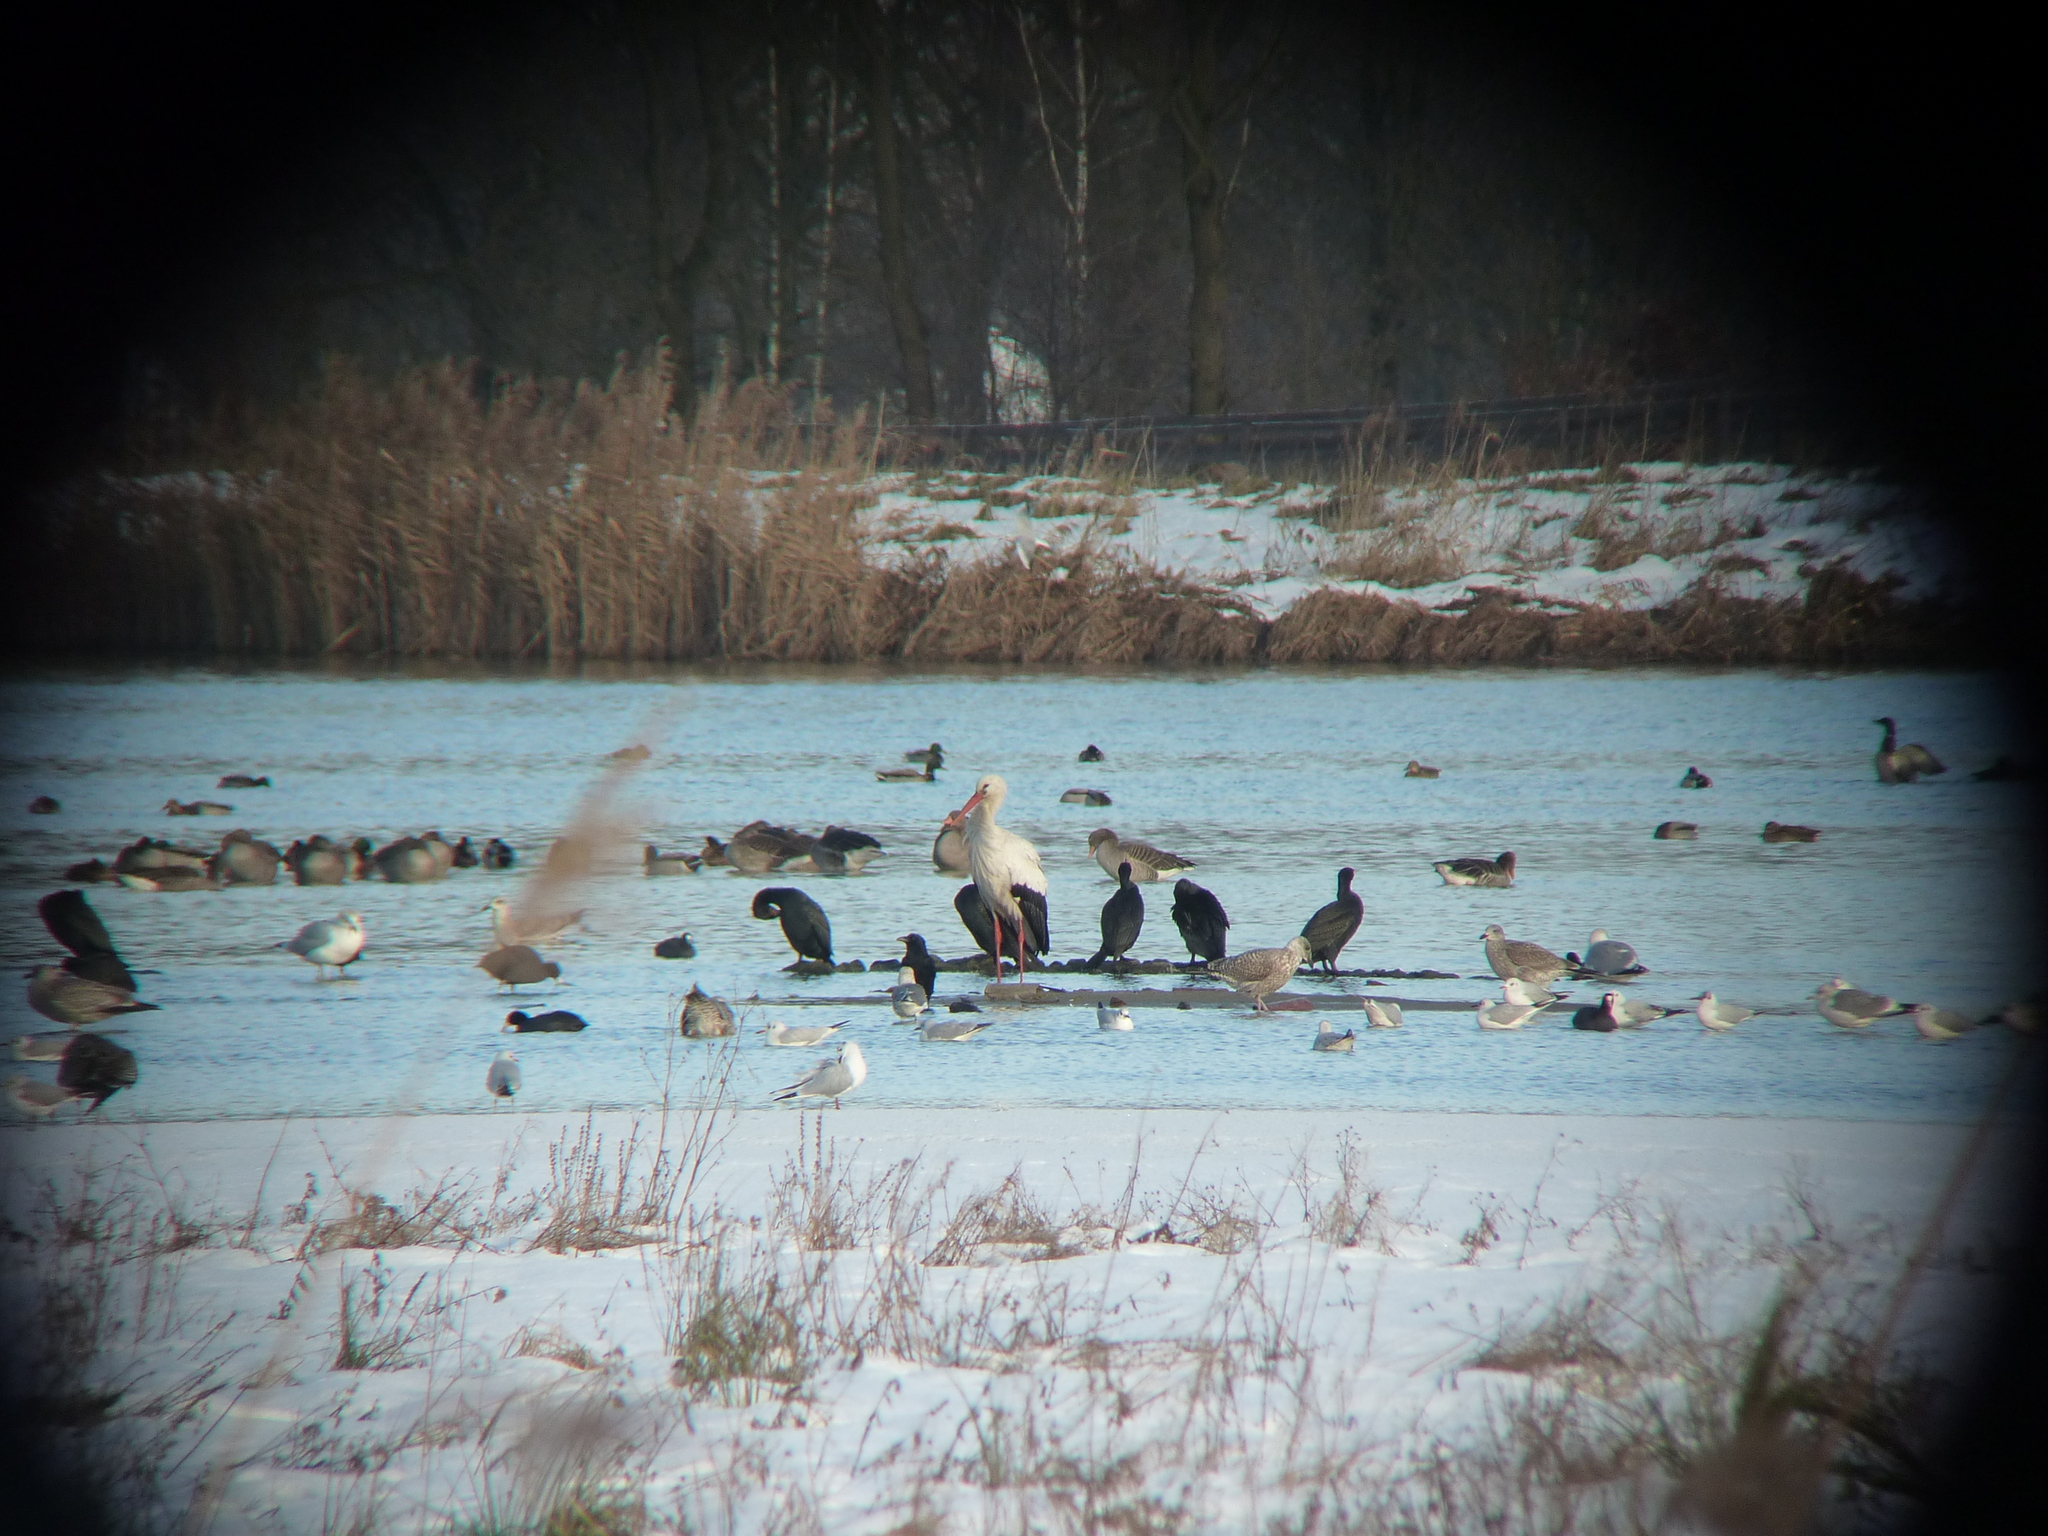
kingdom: Animalia
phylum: Chordata
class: Aves
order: Ciconiiformes
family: Ciconiidae
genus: Ciconia
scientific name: Ciconia ciconia
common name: White stork
